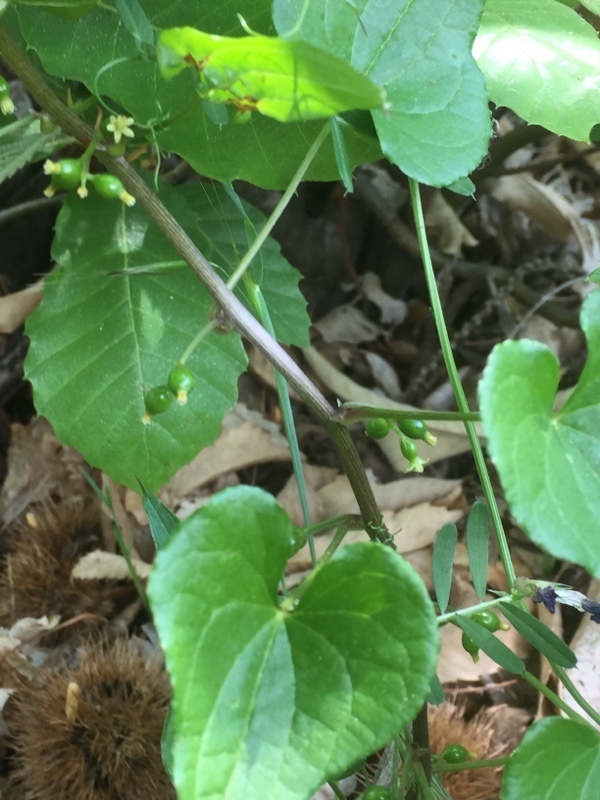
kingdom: Plantae
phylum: Tracheophyta
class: Liliopsida
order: Dioscoreales
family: Dioscoreaceae
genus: Dioscorea
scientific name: Dioscorea communis
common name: Black-bindweed
